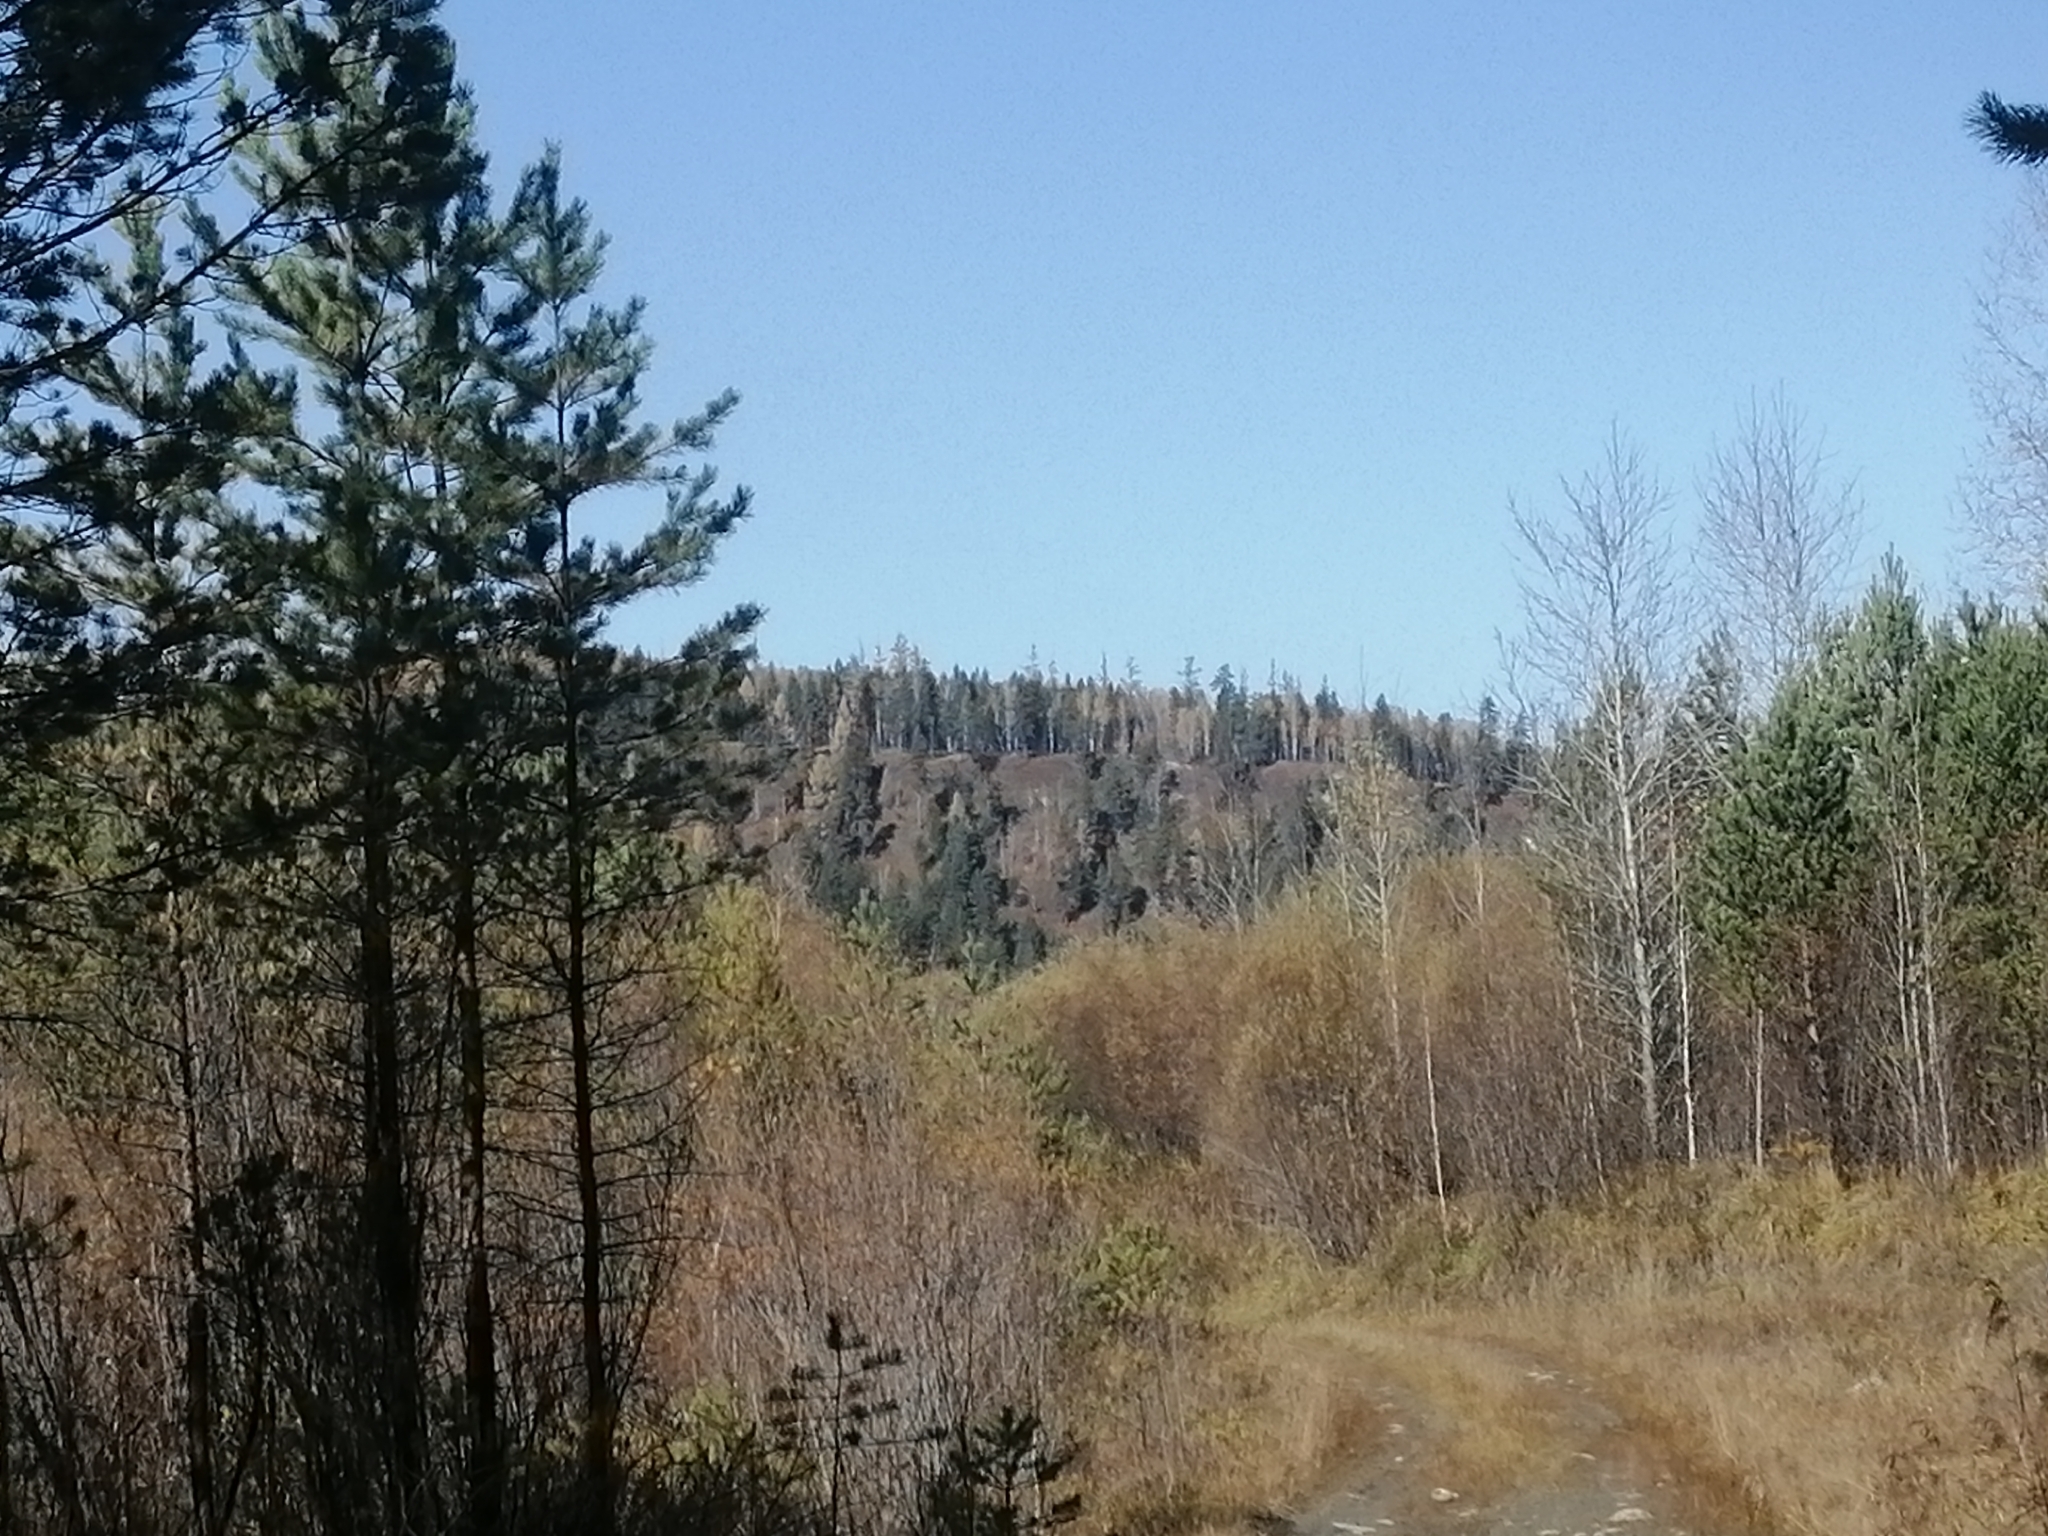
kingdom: Plantae
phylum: Tracheophyta
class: Pinopsida
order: Pinales
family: Pinaceae
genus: Pinus
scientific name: Pinus sylvestris
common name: Scots pine
